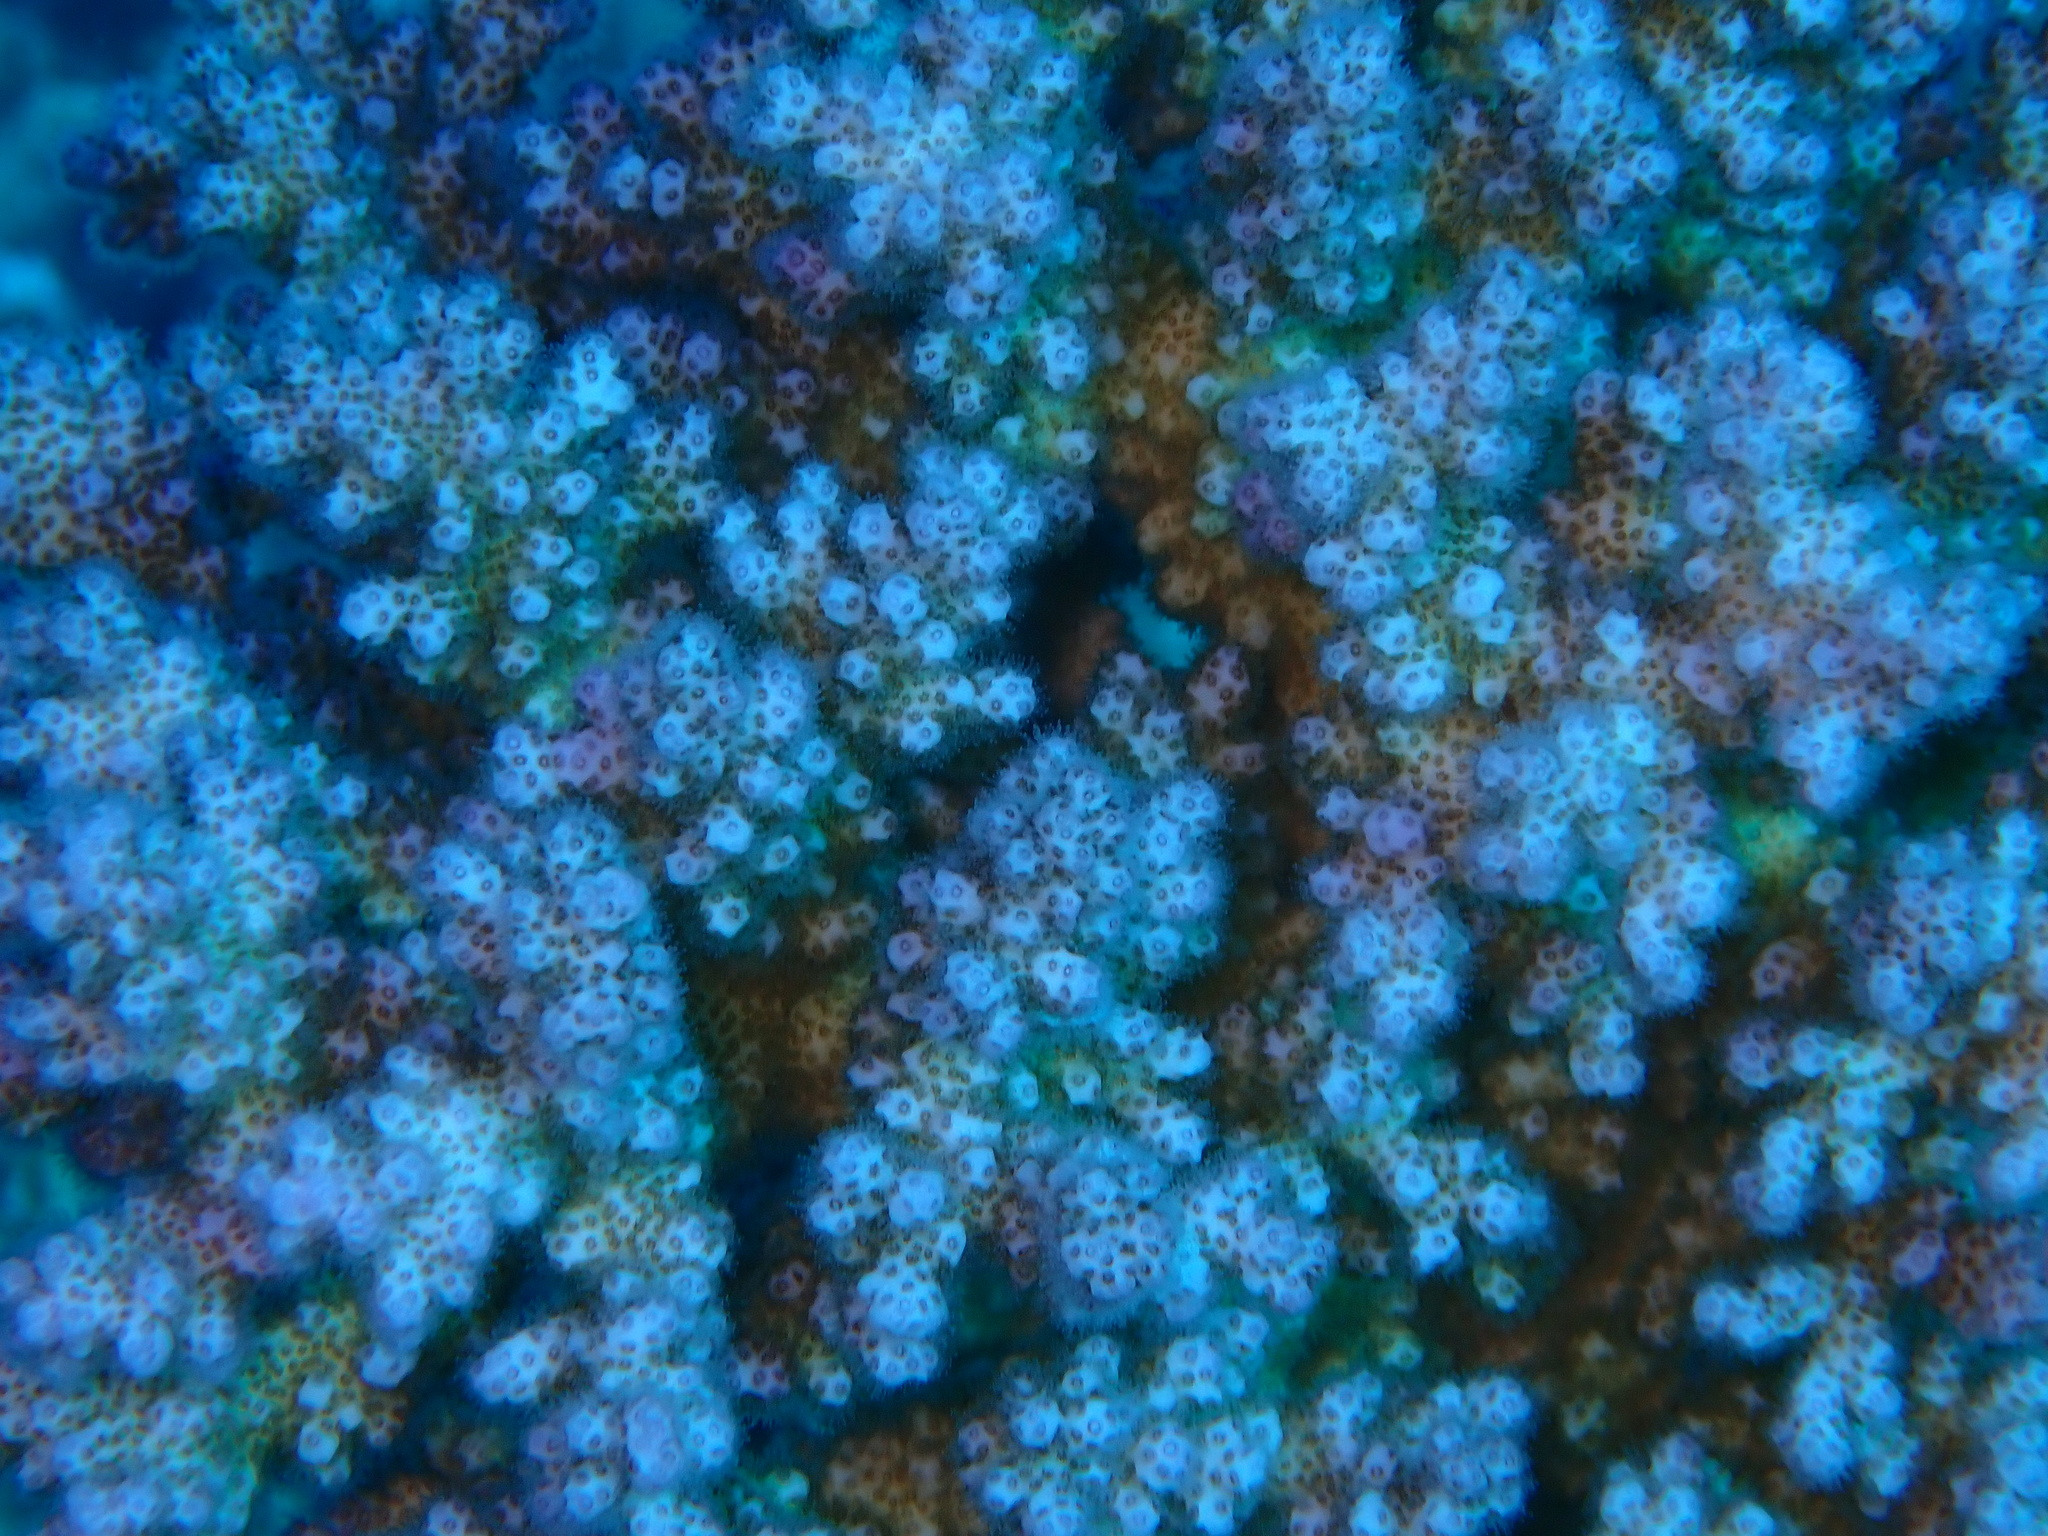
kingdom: Animalia
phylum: Cnidaria
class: Anthozoa
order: Scleractinia
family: Pocilloporidae
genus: Pocillopora
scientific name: Pocillopora verrucosa
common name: Cauliflower coral
